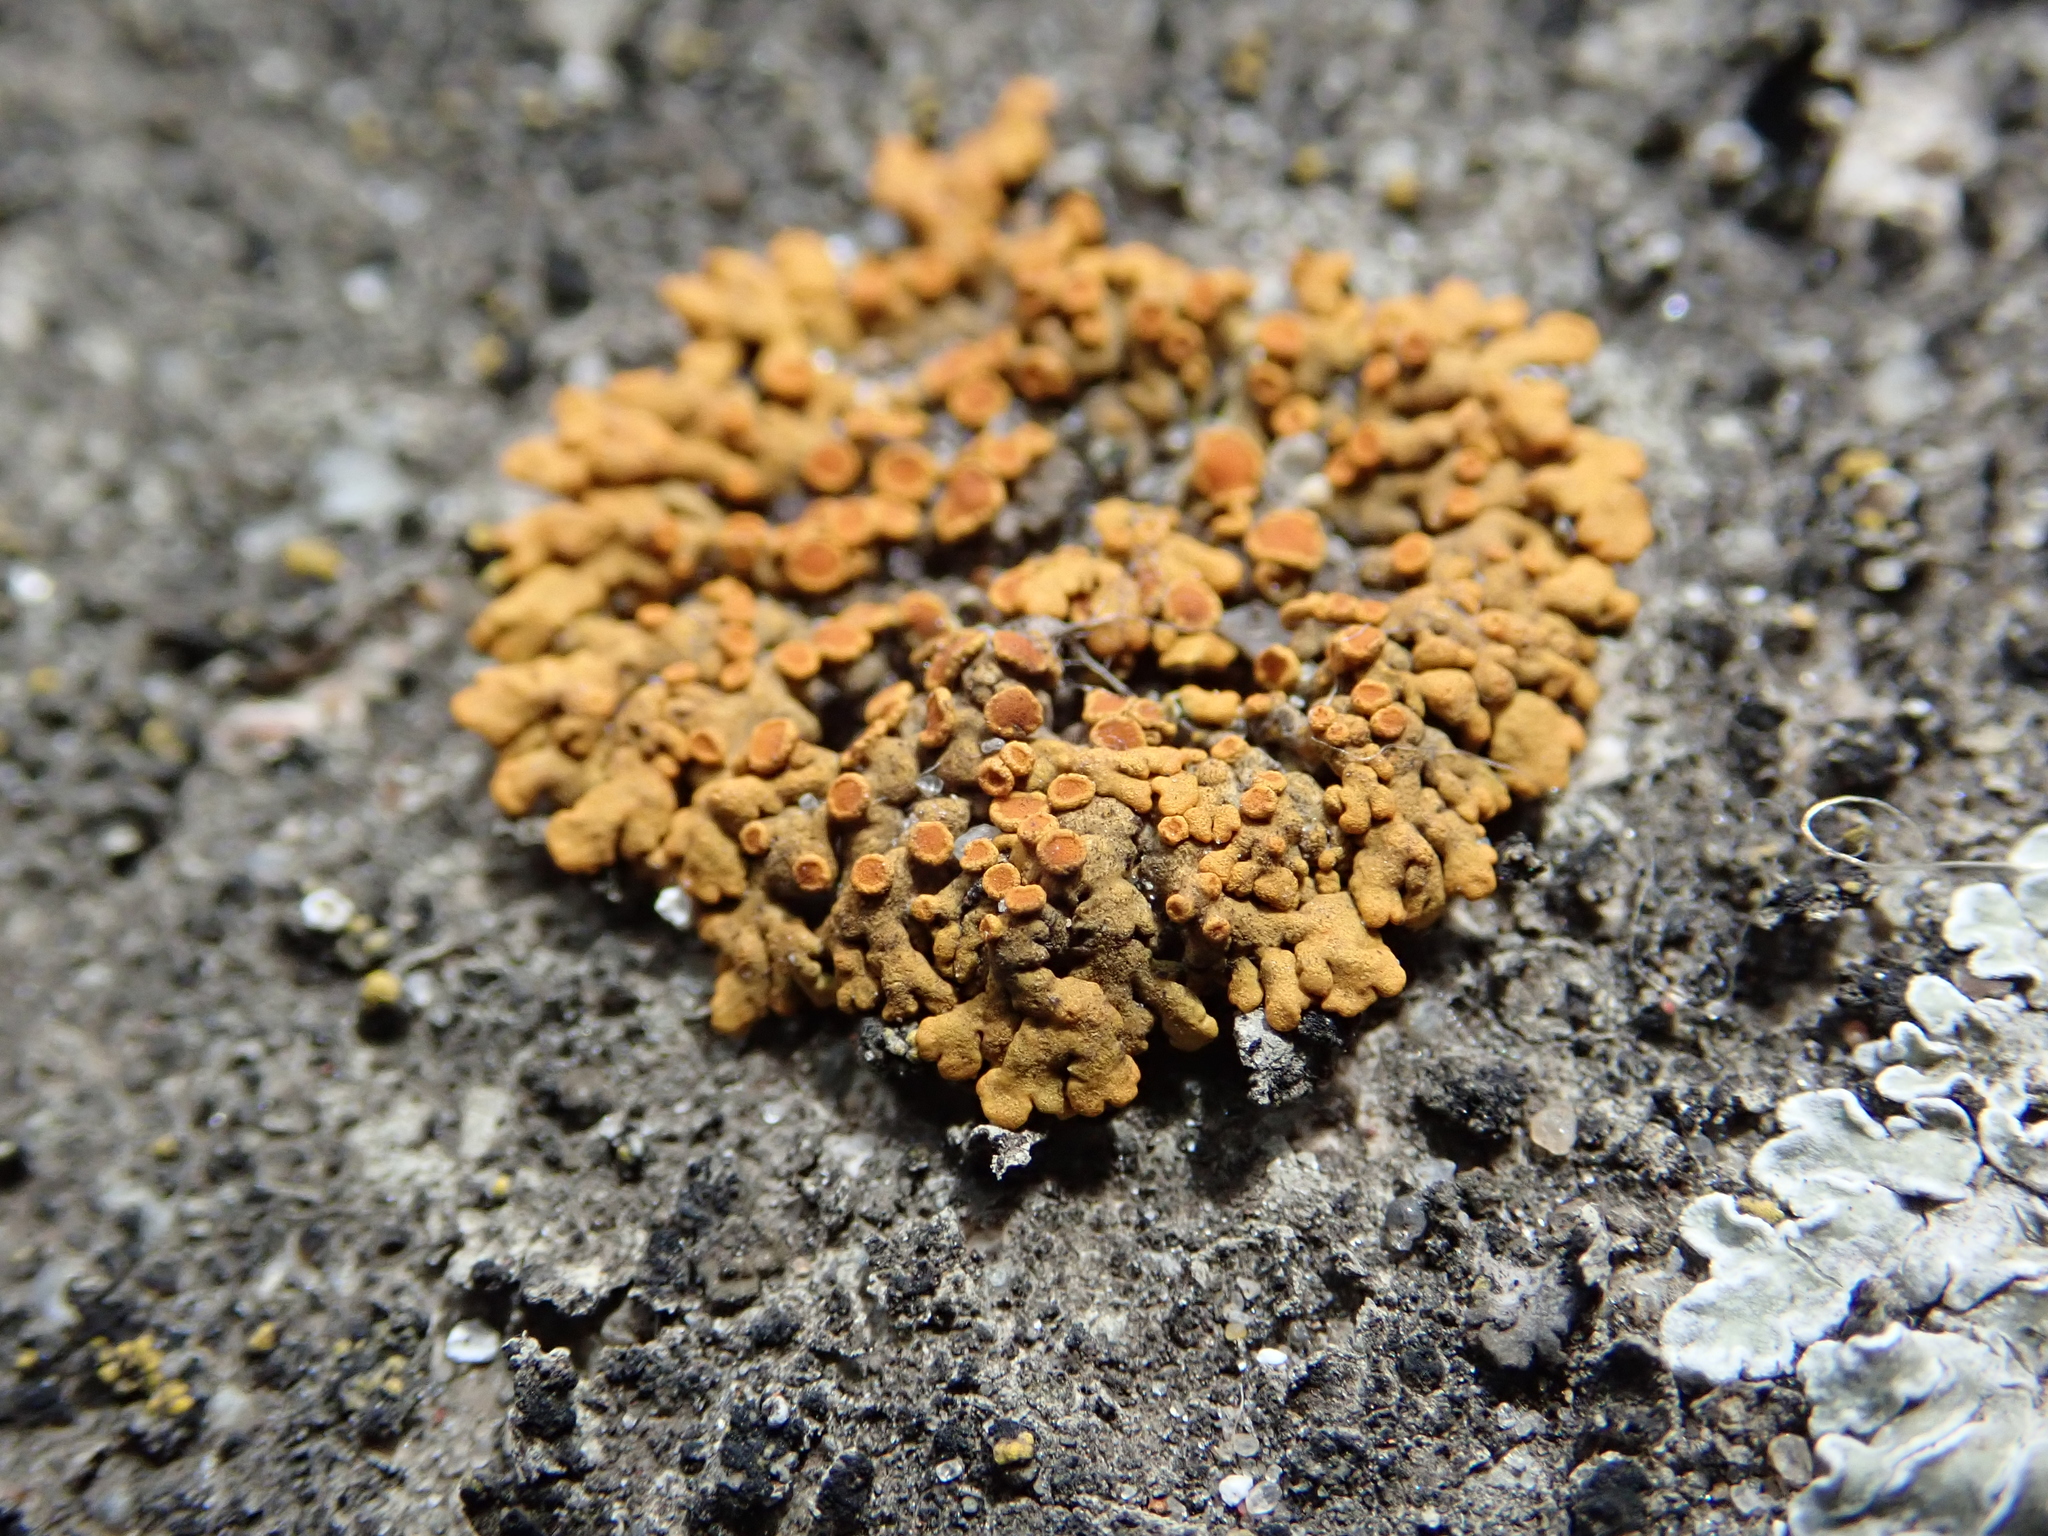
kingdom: Fungi
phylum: Ascomycota
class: Lecanoromycetes
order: Teloschistales
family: Teloschistaceae
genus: Xanthoria
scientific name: Xanthoria elegans
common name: Elegant sunburst lichen
